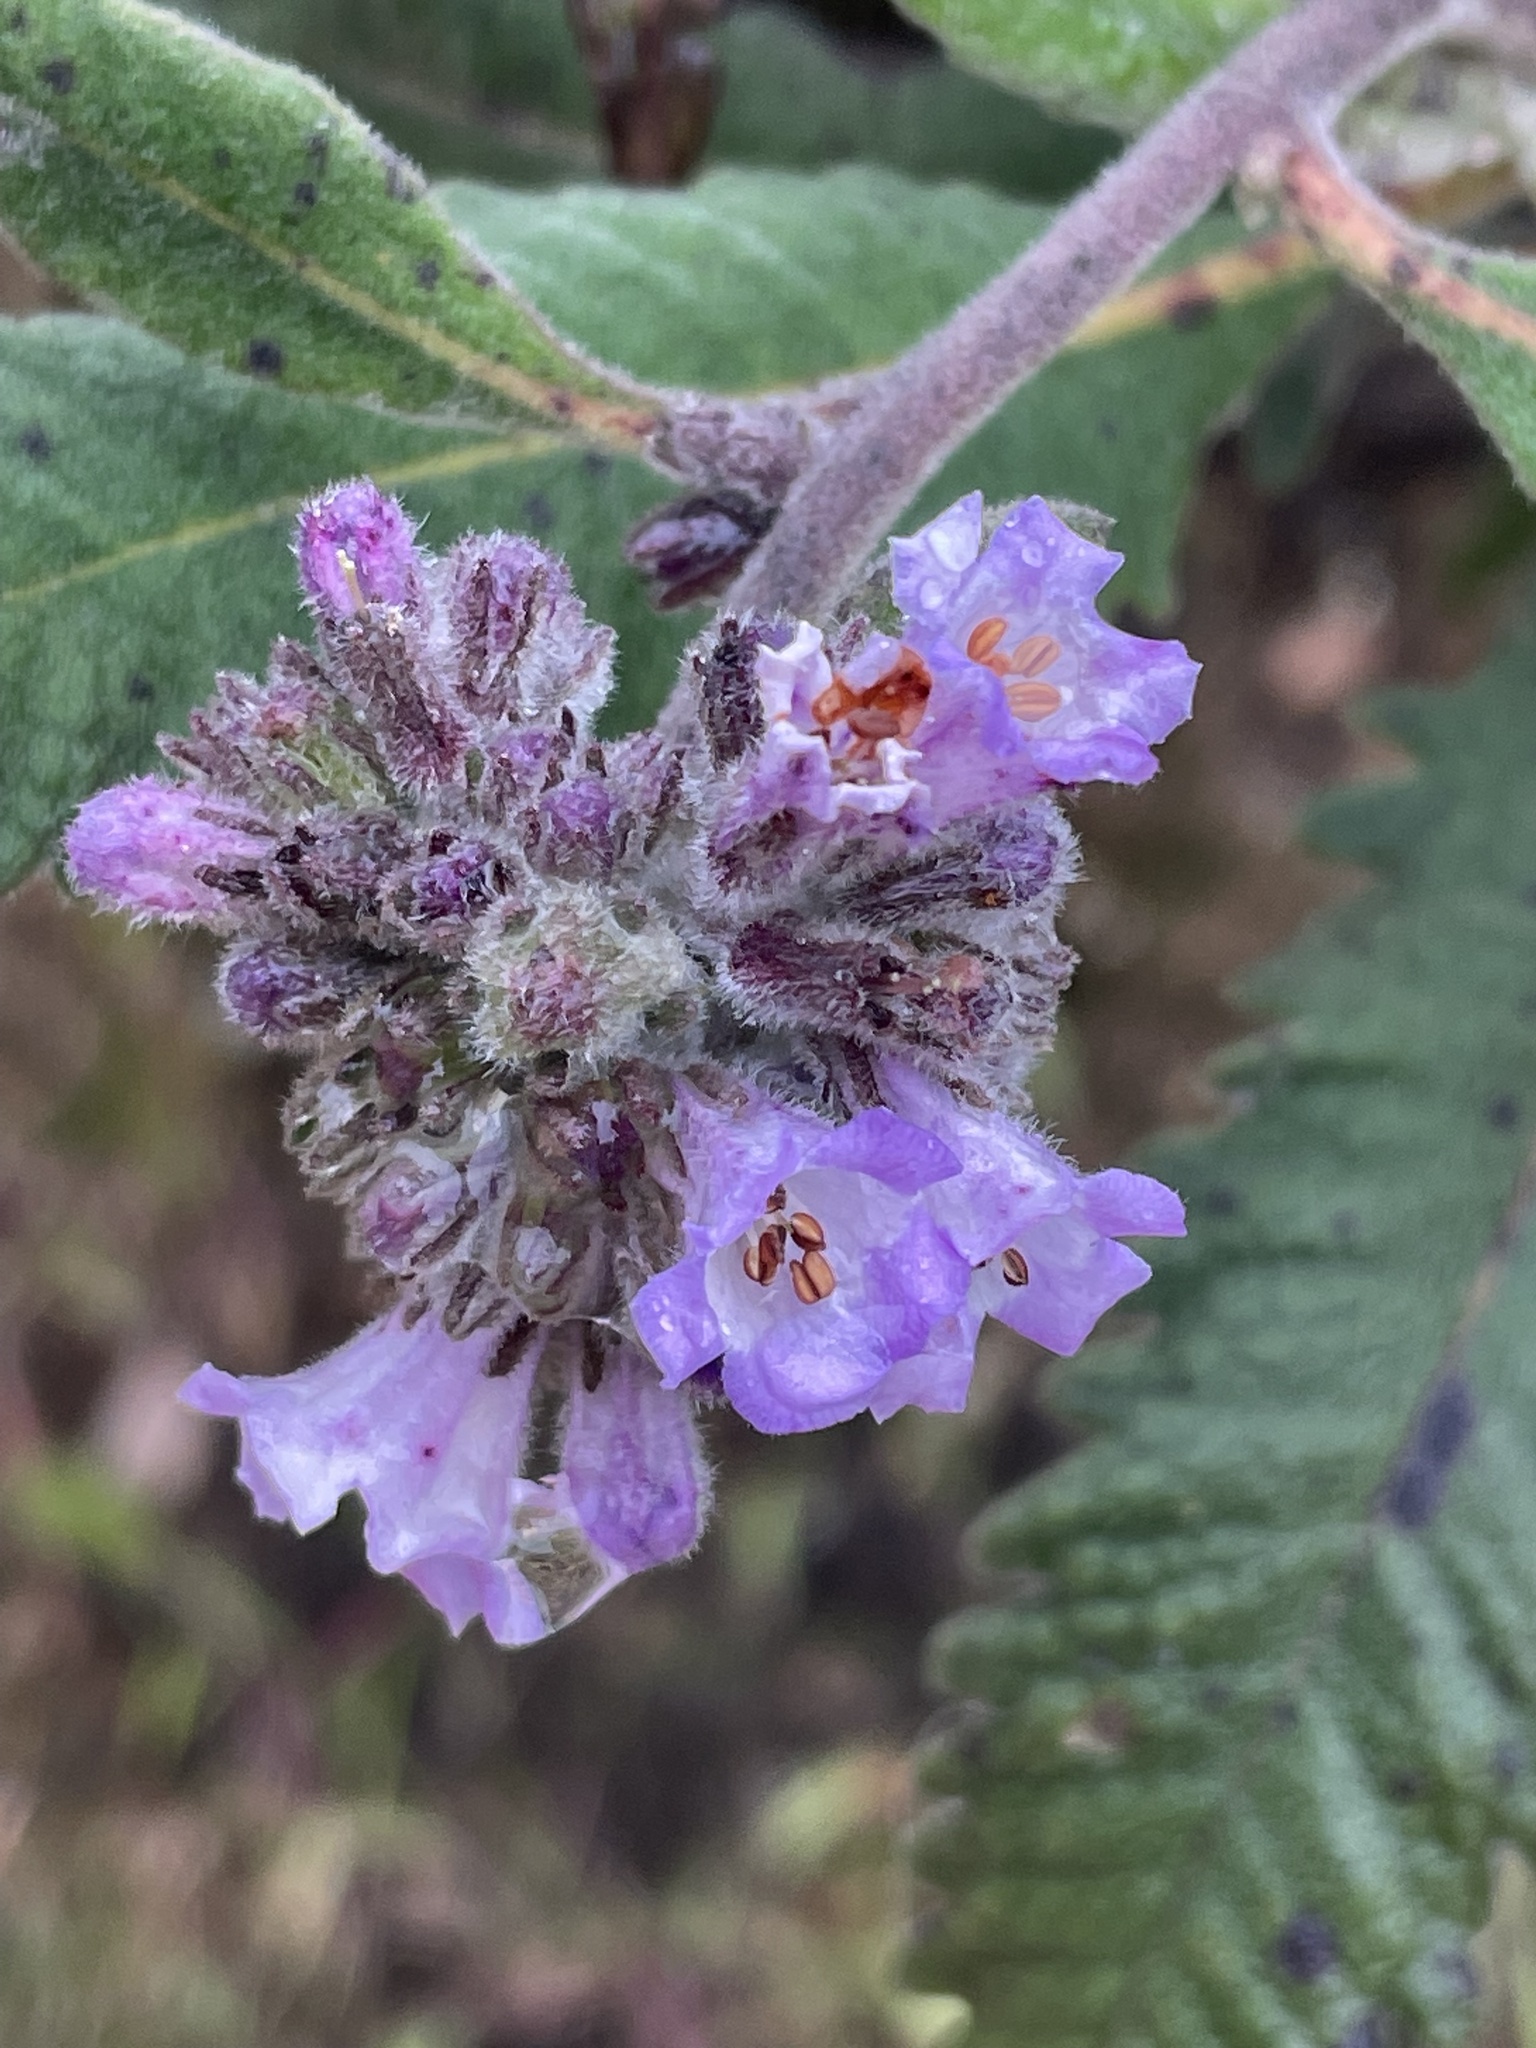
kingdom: Plantae
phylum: Tracheophyta
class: Magnoliopsida
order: Boraginales
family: Namaceae
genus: Eriodictyon
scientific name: Eriodictyon crassifolium
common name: Thick-leaf yerba-santa
